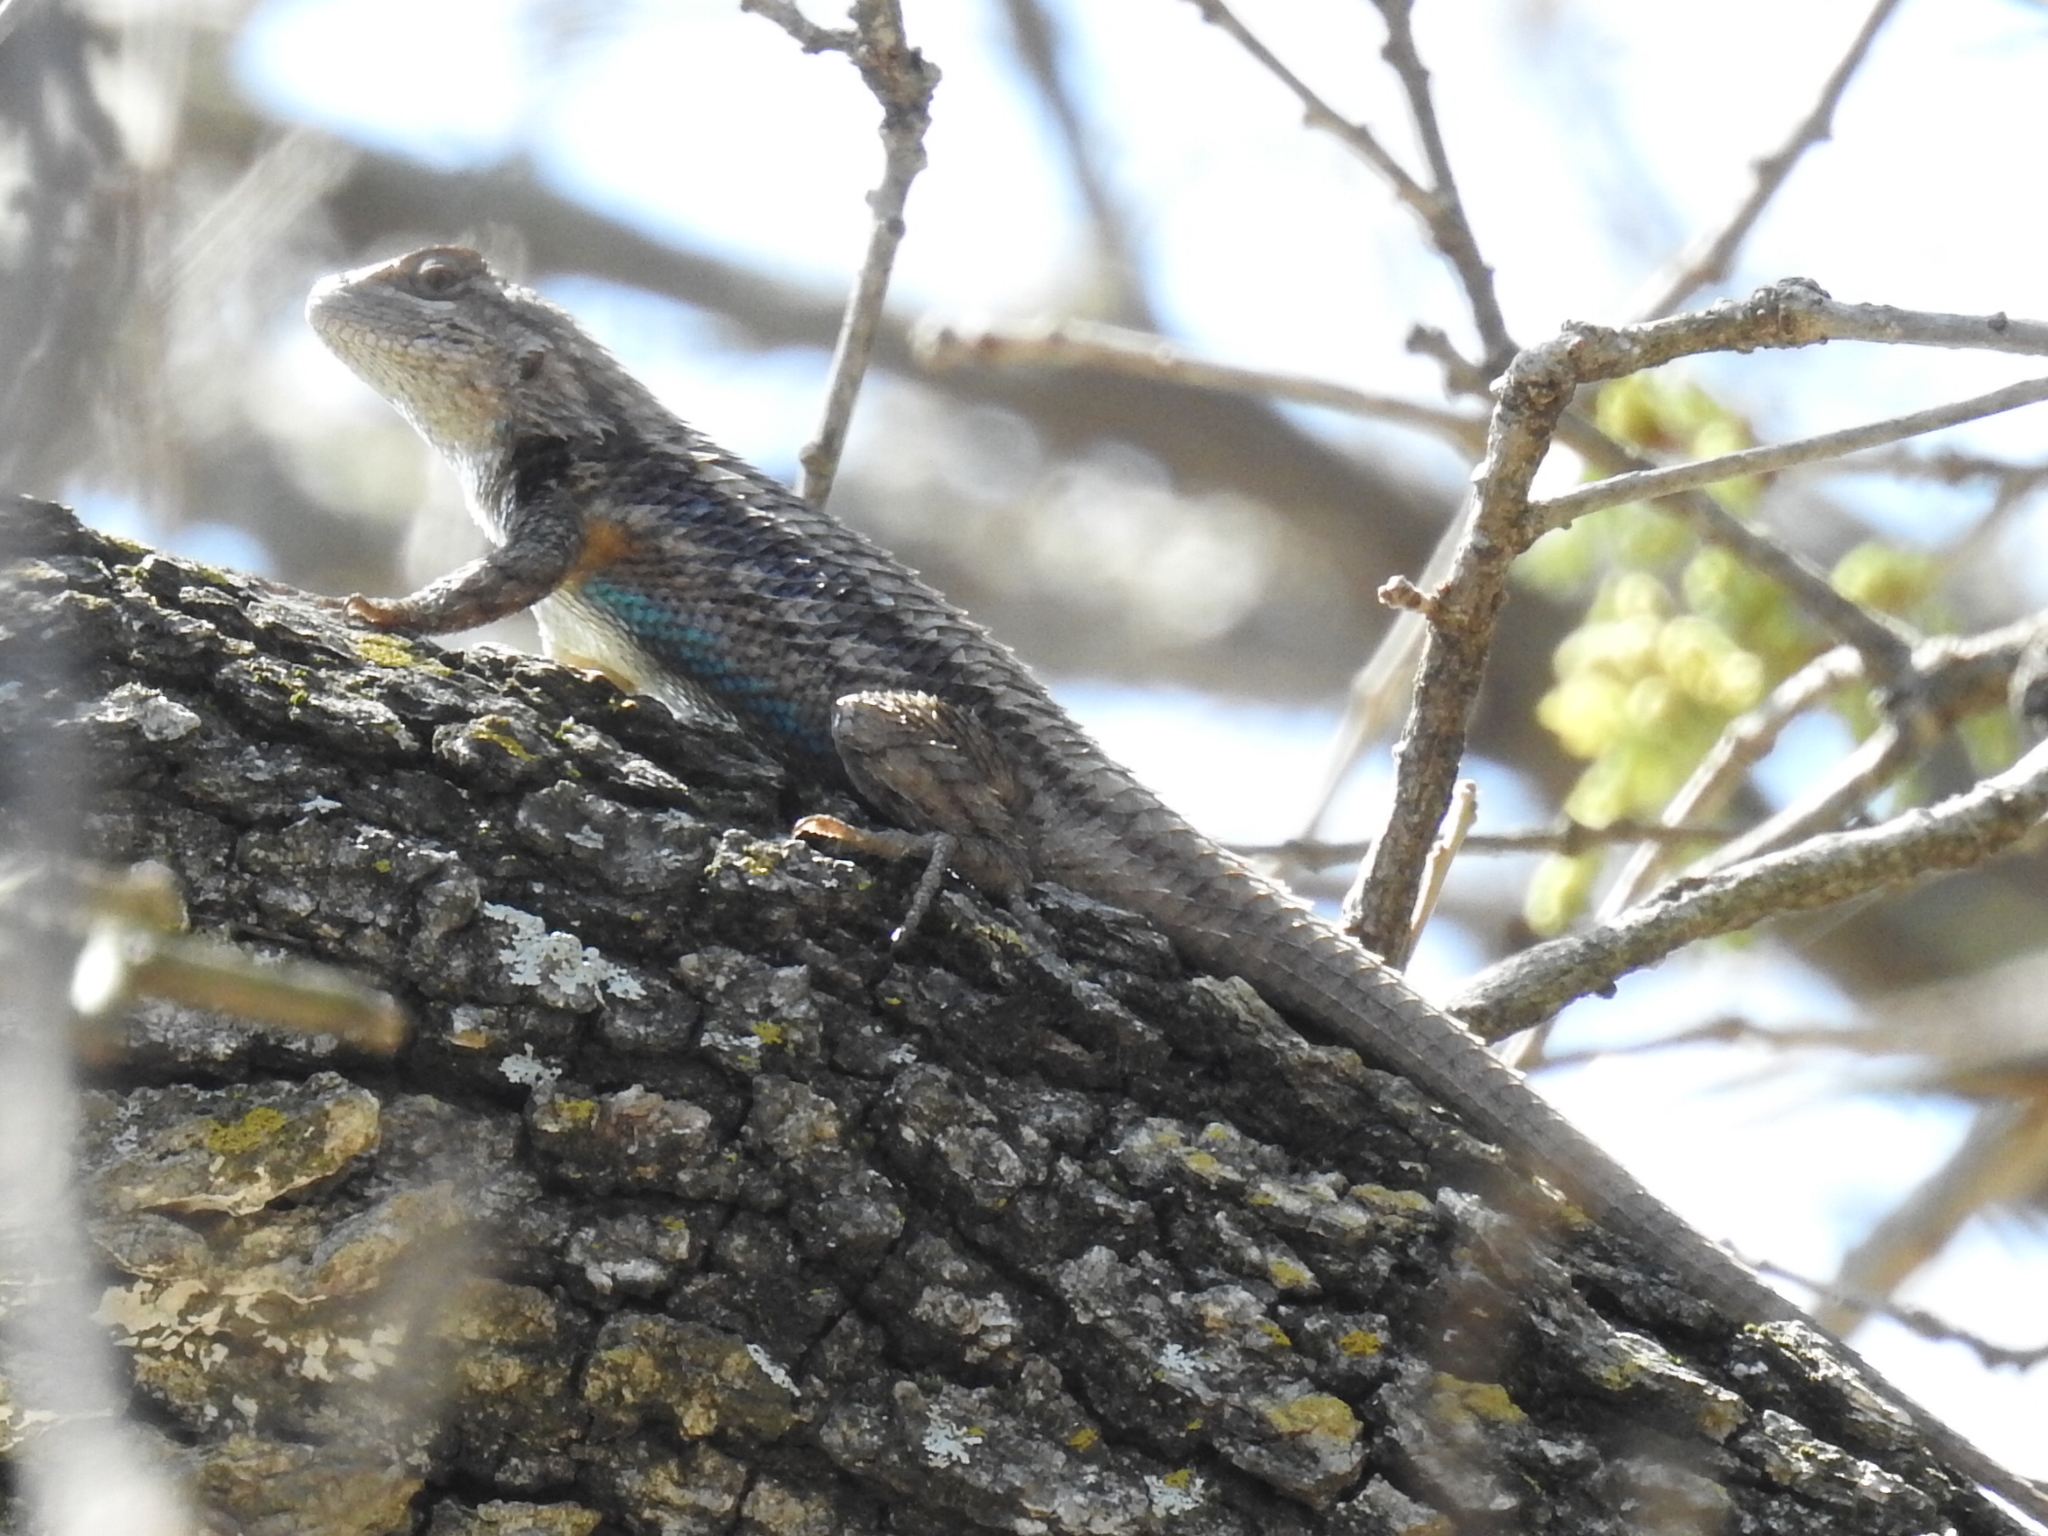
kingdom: Animalia
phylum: Chordata
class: Squamata
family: Phrynosomatidae
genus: Sceloporus
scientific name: Sceloporus olivaceus
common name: Texas spiny lizard
